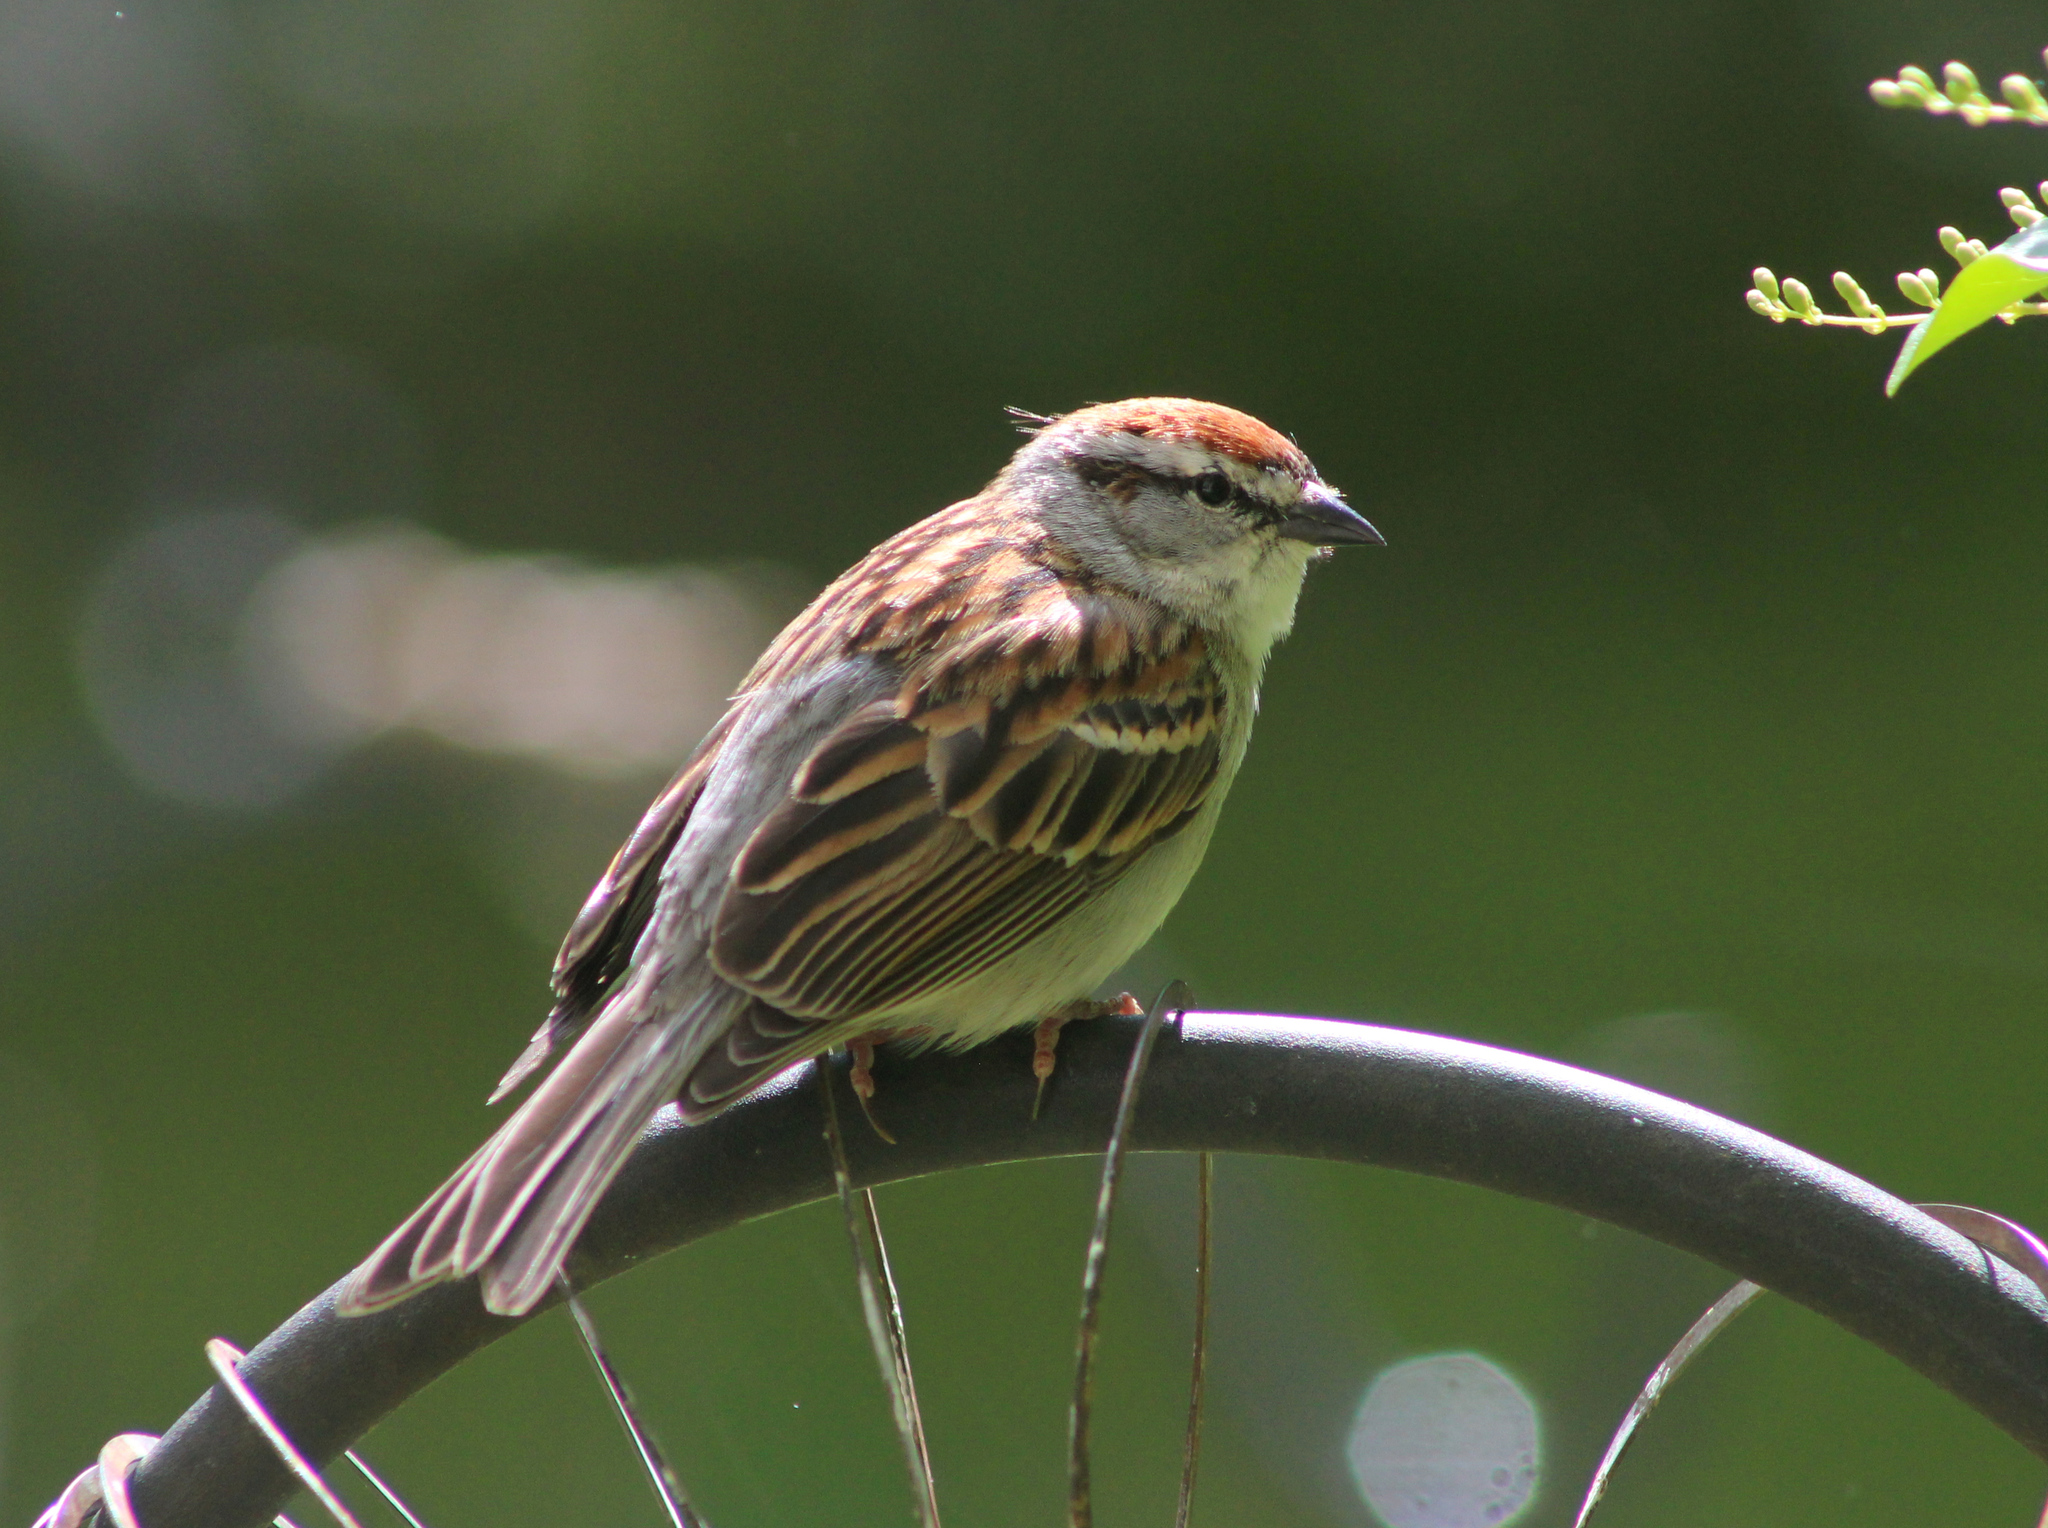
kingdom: Animalia
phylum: Chordata
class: Aves
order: Passeriformes
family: Passerellidae
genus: Spizella
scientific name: Spizella passerina
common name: Chipping sparrow
